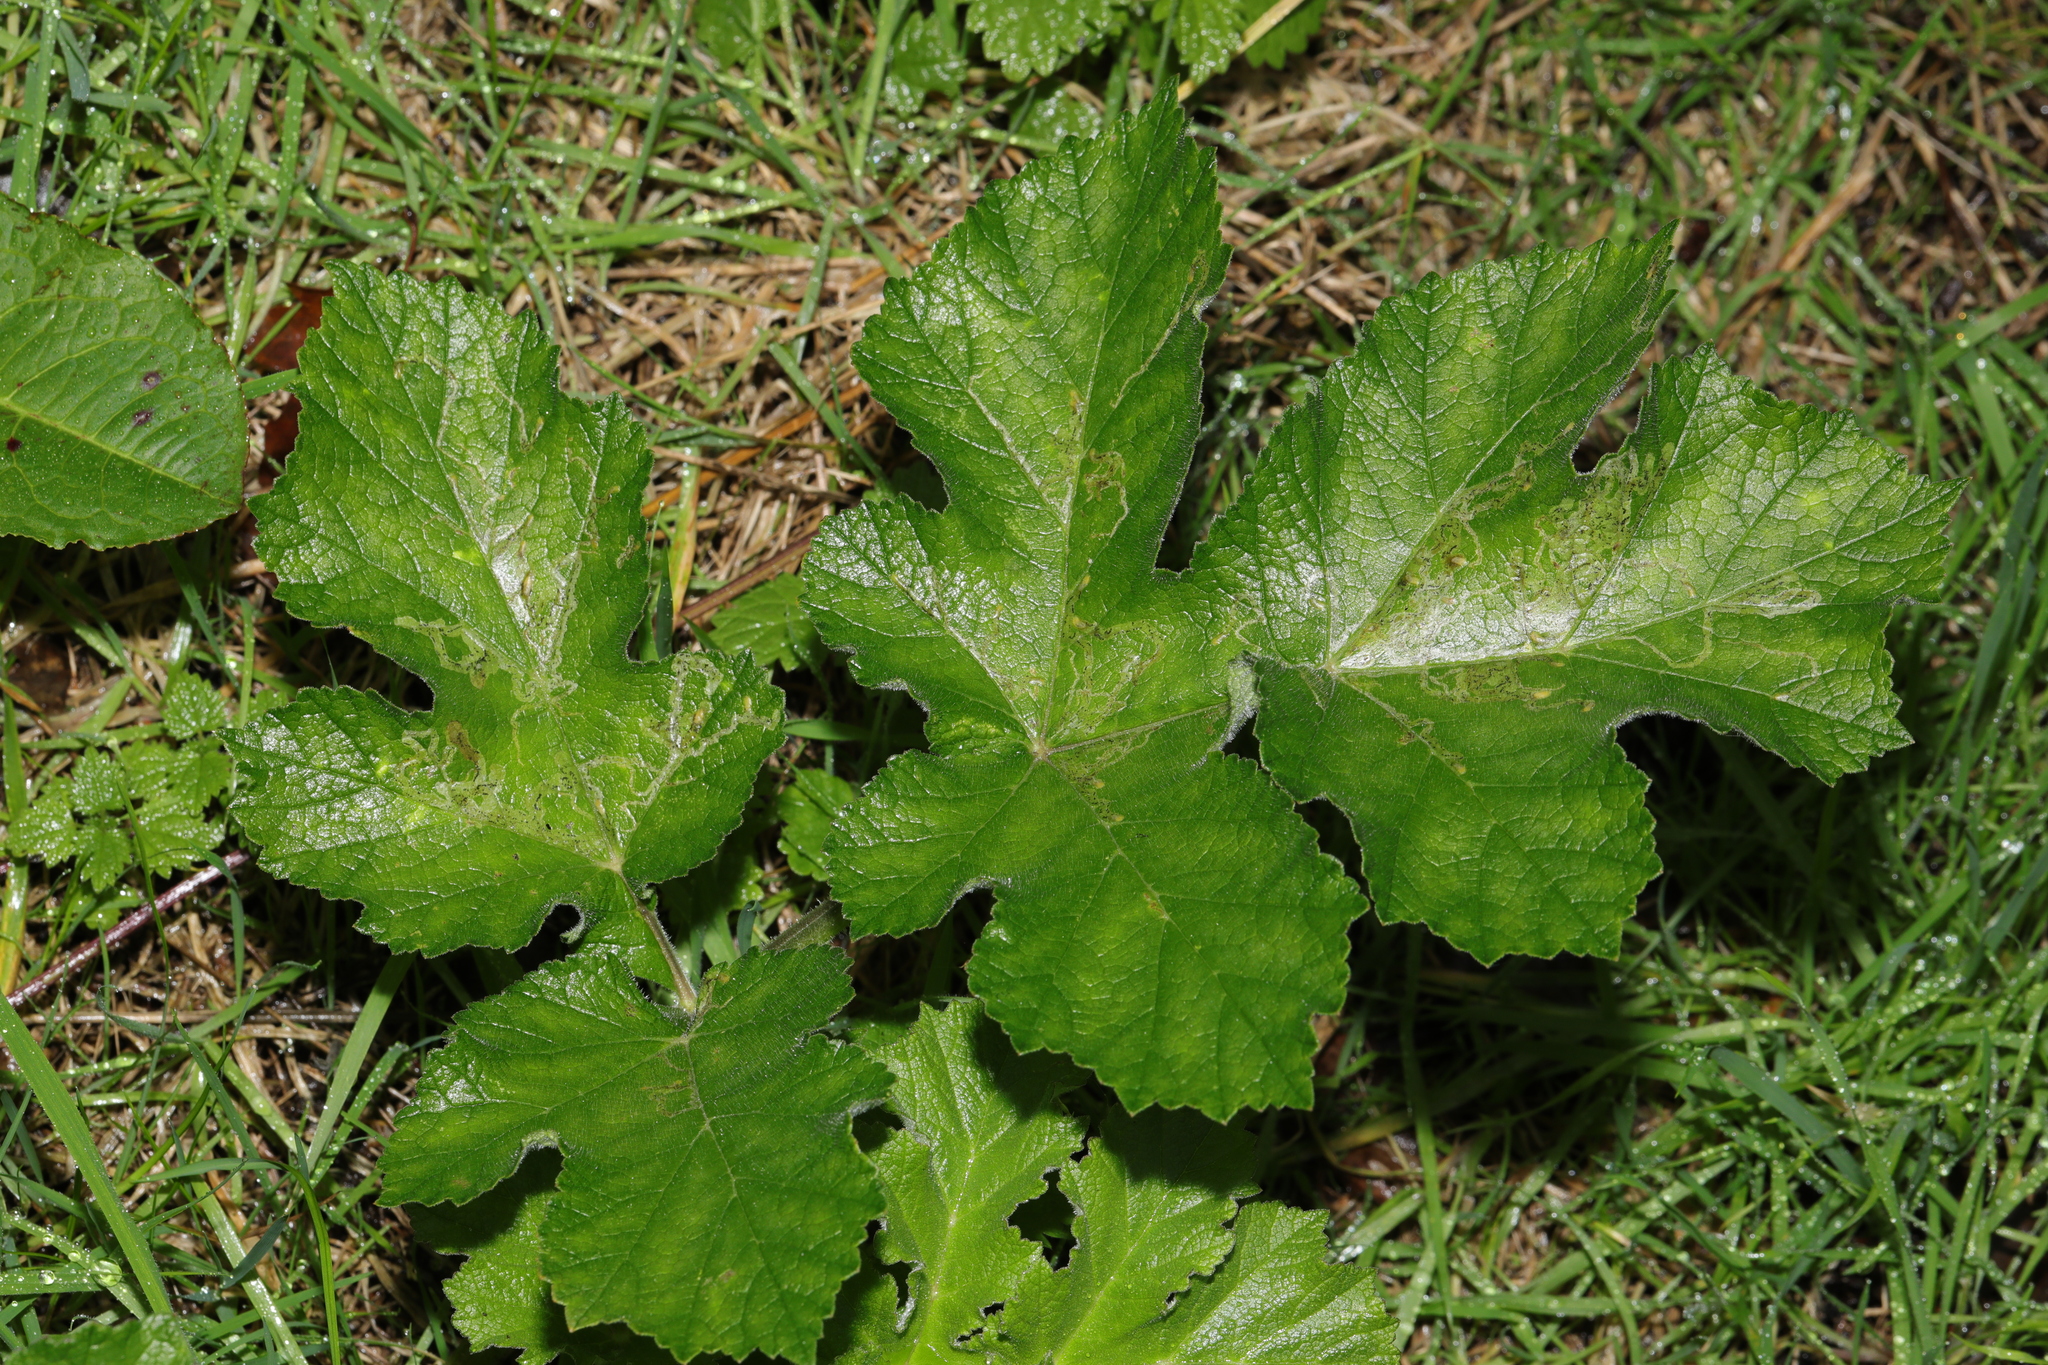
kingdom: Plantae
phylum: Tracheophyta
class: Magnoliopsida
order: Apiales
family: Apiaceae
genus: Heracleum
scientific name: Heracleum sphondylium
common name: Hogweed
